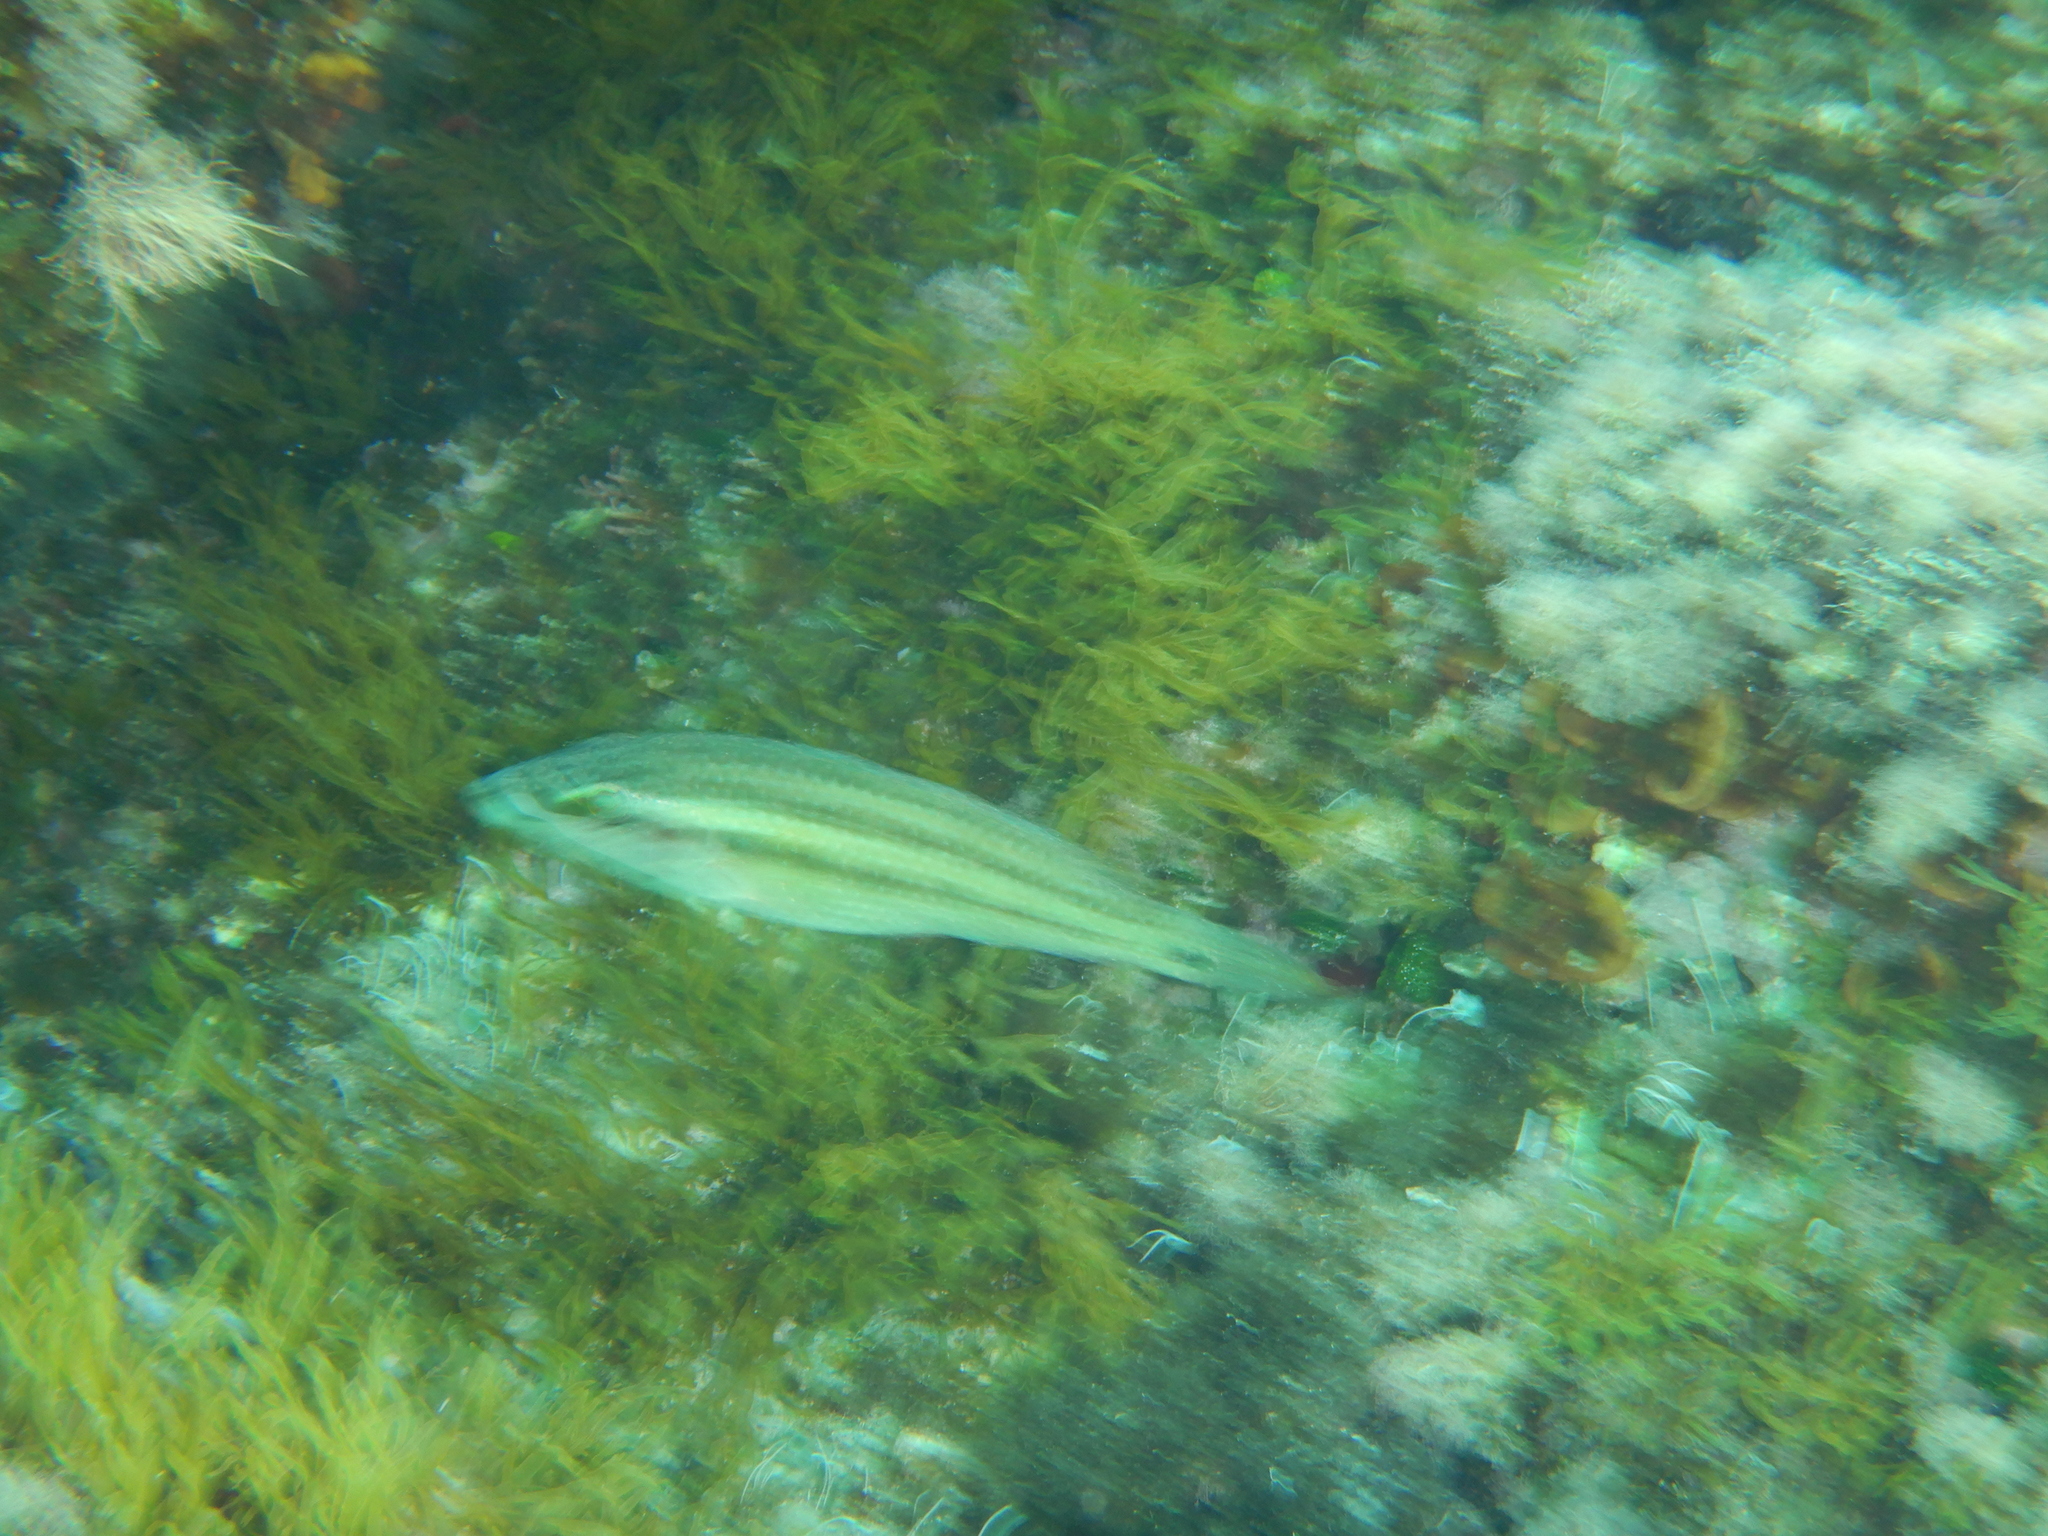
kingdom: Animalia
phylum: Chordata
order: Perciformes
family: Labridae
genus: Symphodus
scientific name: Symphodus tinca
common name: Peacock wrasse
